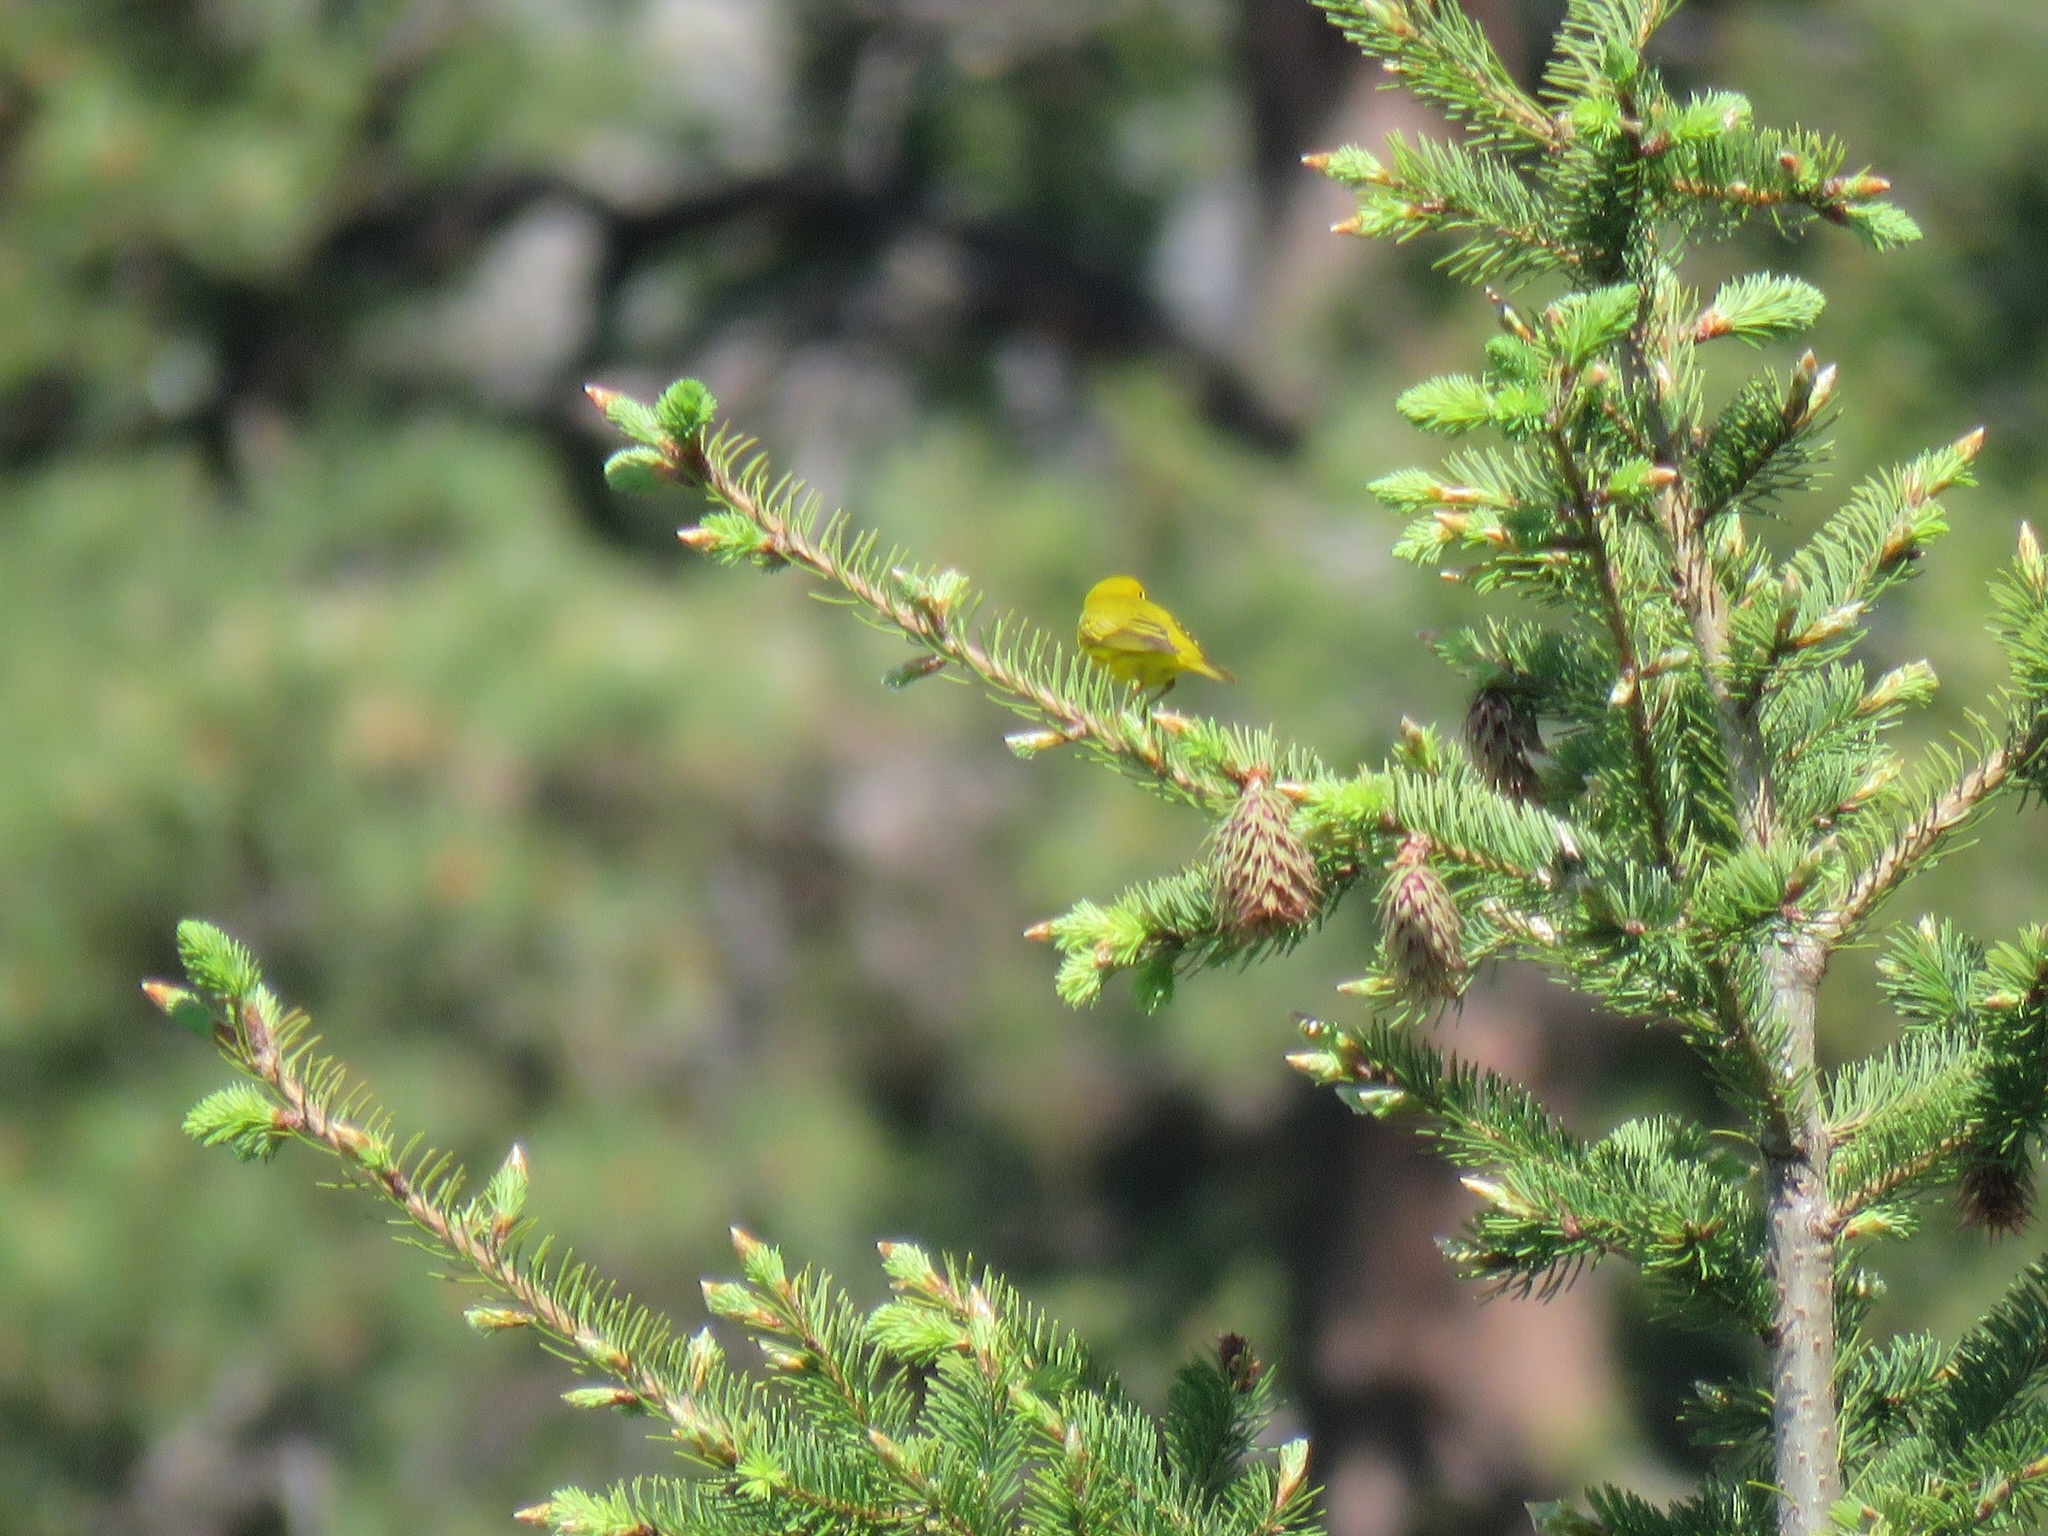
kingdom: Animalia
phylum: Chordata
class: Aves
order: Passeriformes
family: Parulidae
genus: Setophaga
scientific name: Setophaga petechia
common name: Yellow warbler
